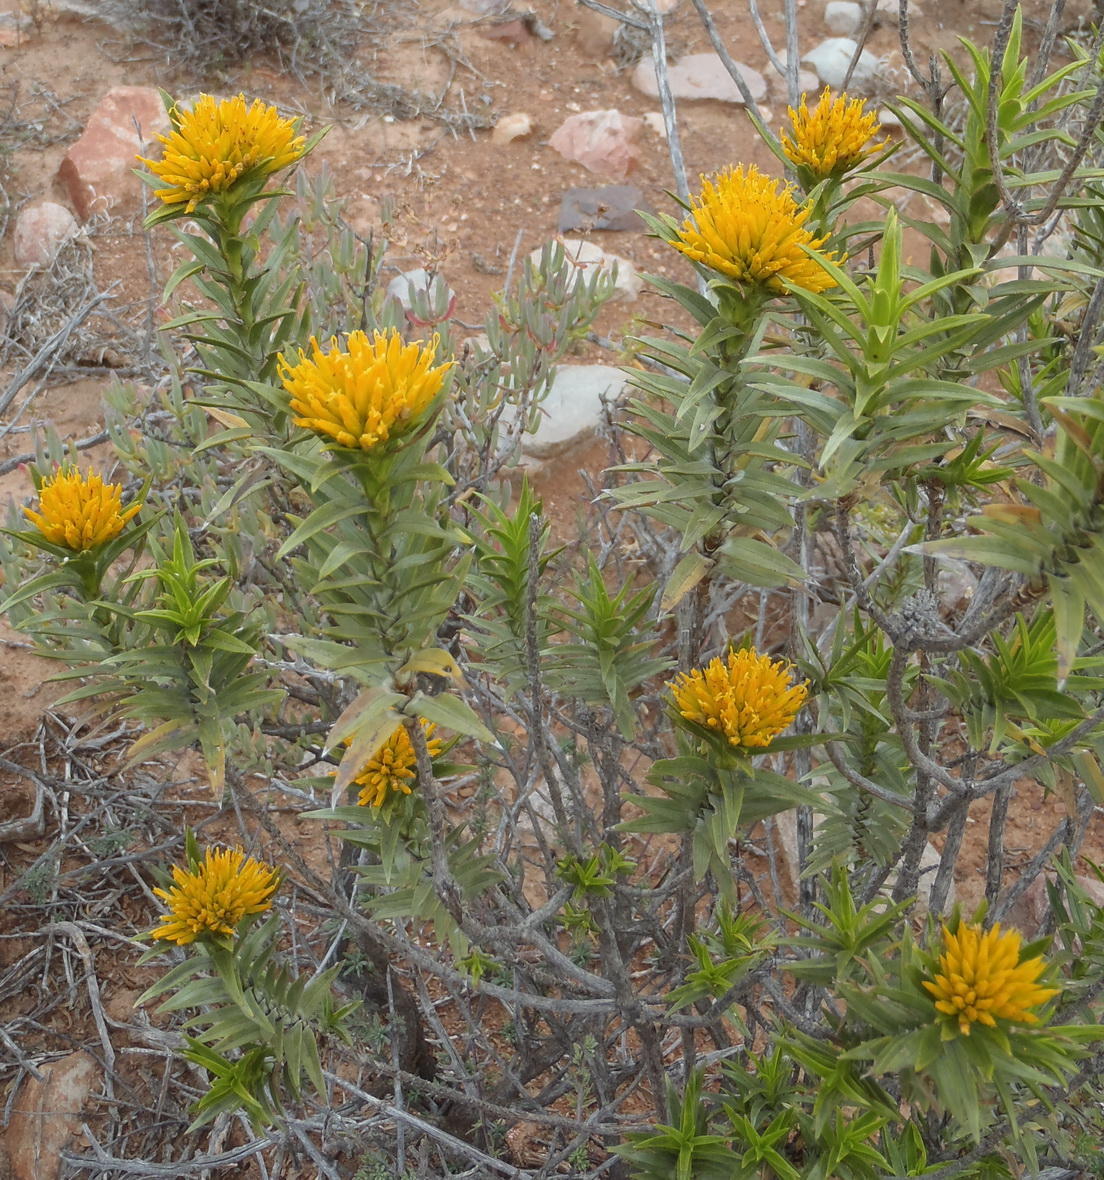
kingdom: Plantae
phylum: Tracheophyta
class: Magnoliopsida
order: Asterales
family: Asteraceae
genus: Pteronia
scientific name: Pteronia fasciculata
